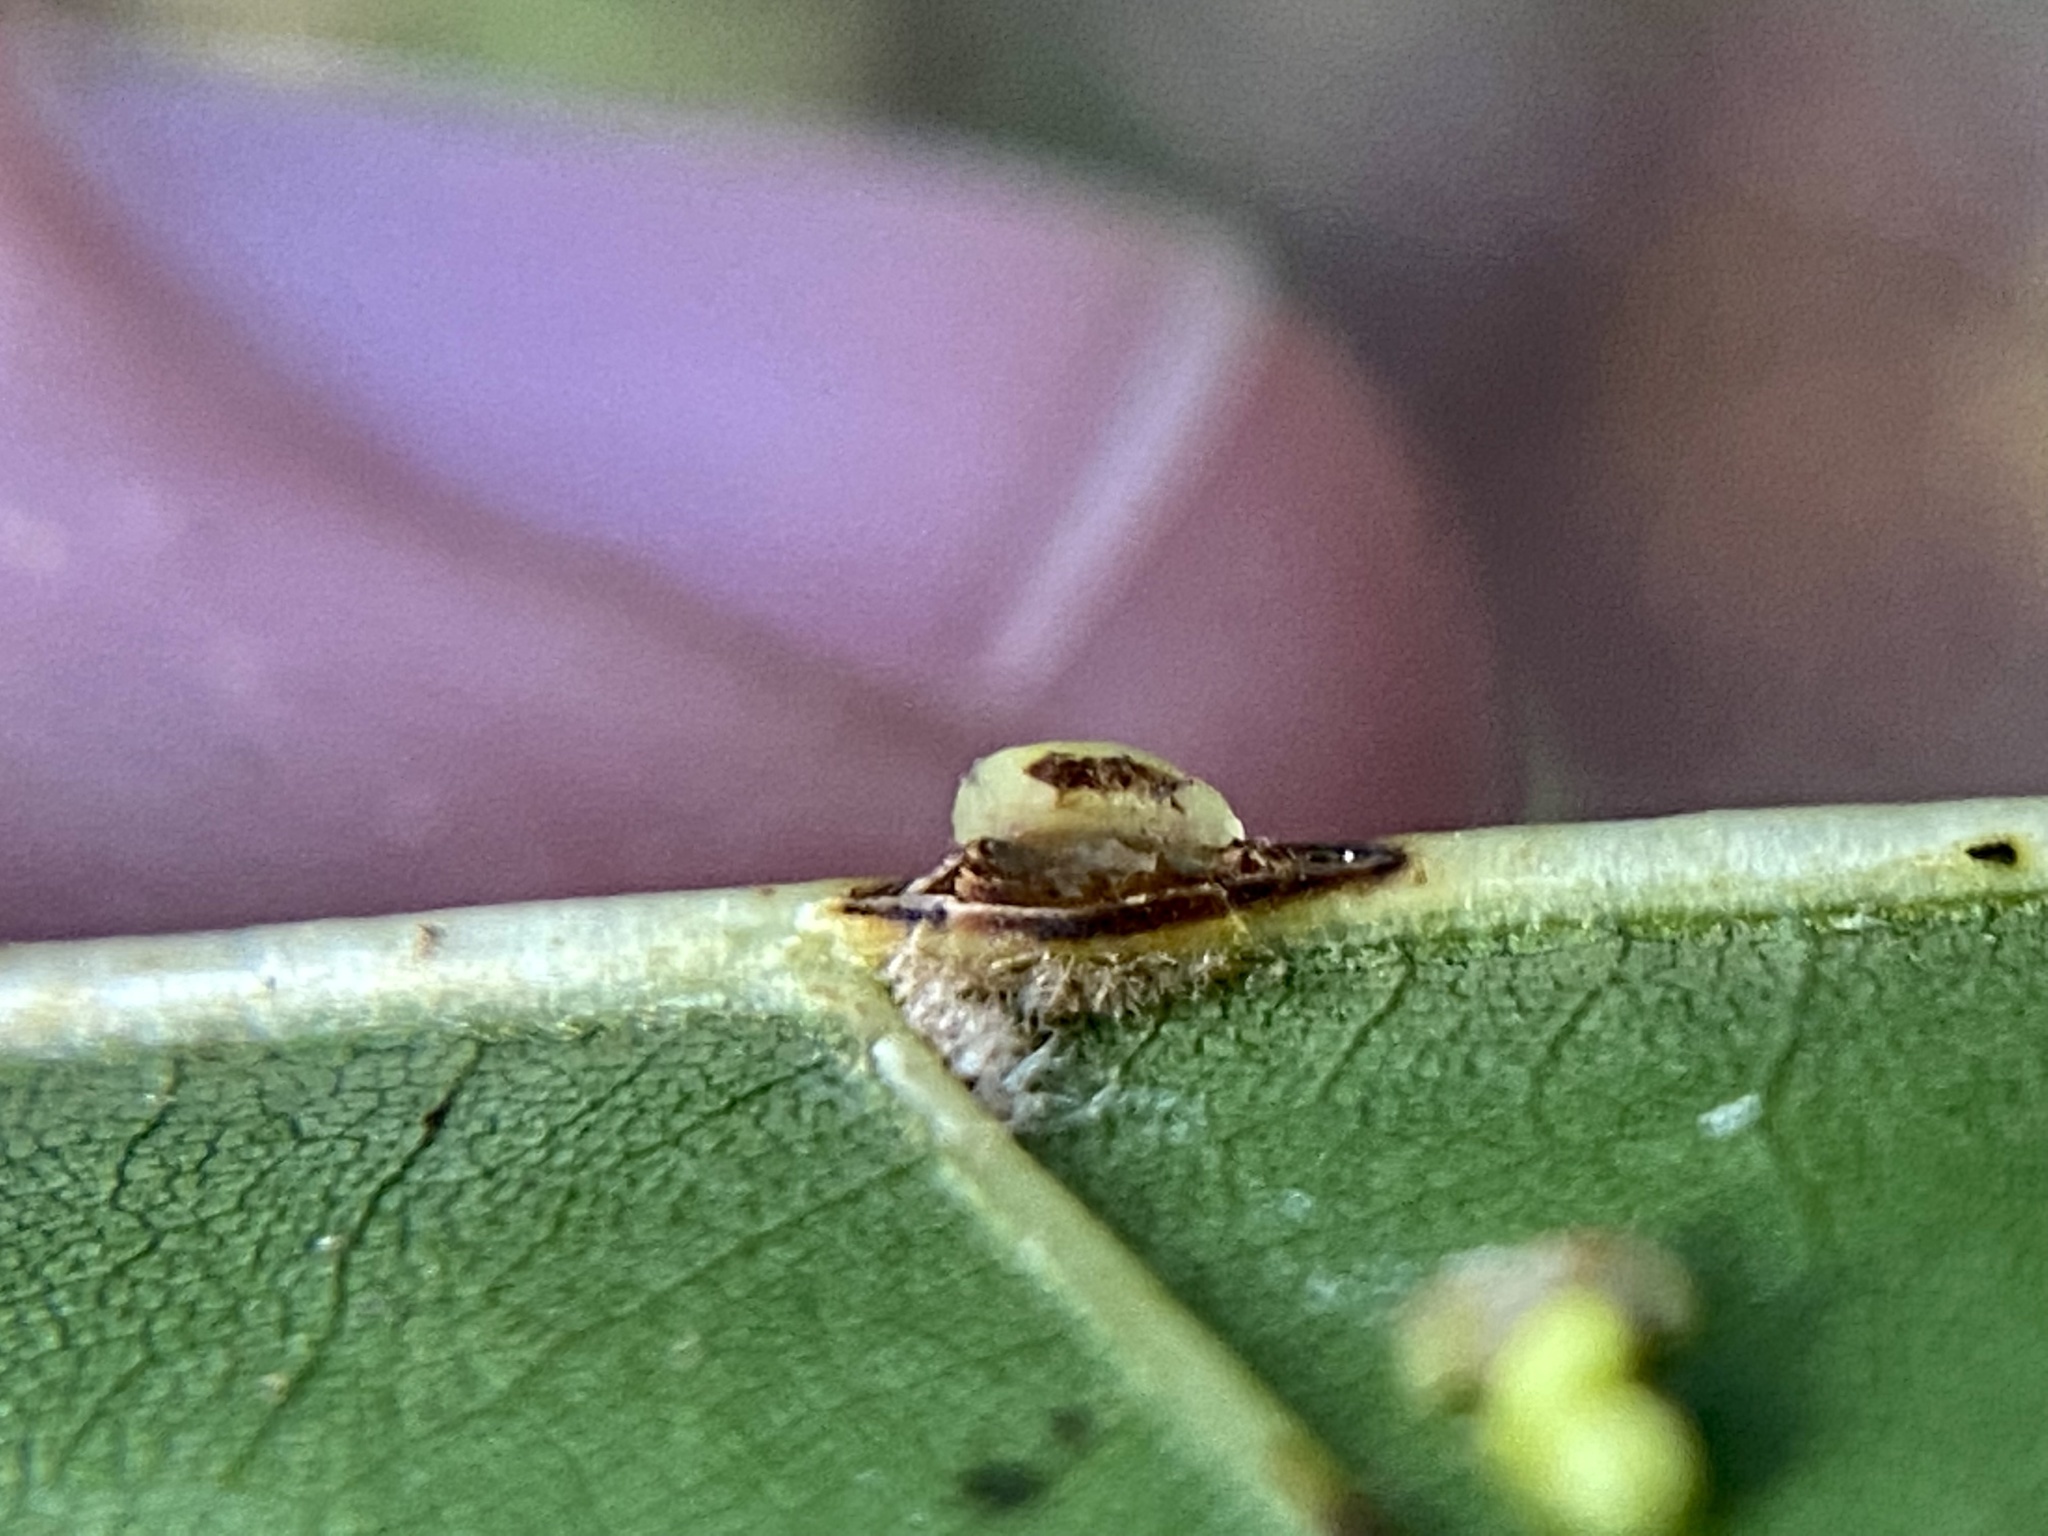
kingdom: Animalia
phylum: Arthropoda
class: Insecta
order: Hymenoptera
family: Cynipidae
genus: Kokkocynips
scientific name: Kokkocynips rileyi
